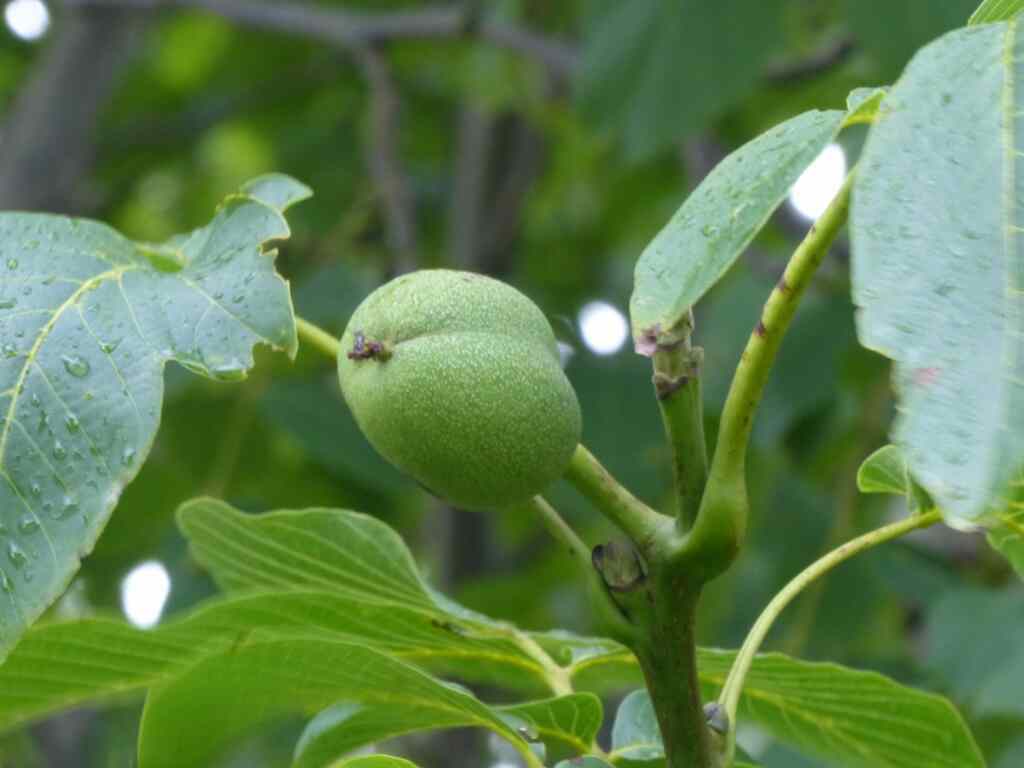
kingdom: Plantae
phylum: Tracheophyta
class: Magnoliopsida
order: Fagales
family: Juglandaceae
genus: Juglans
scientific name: Juglans regia
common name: Walnut
